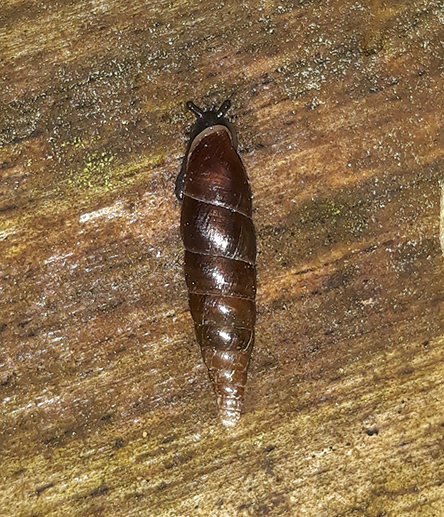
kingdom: Animalia
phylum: Mollusca
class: Gastropoda
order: Stylommatophora
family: Clausiliidae
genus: Cochlodina
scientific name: Cochlodina laminata
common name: Plaited door snail
